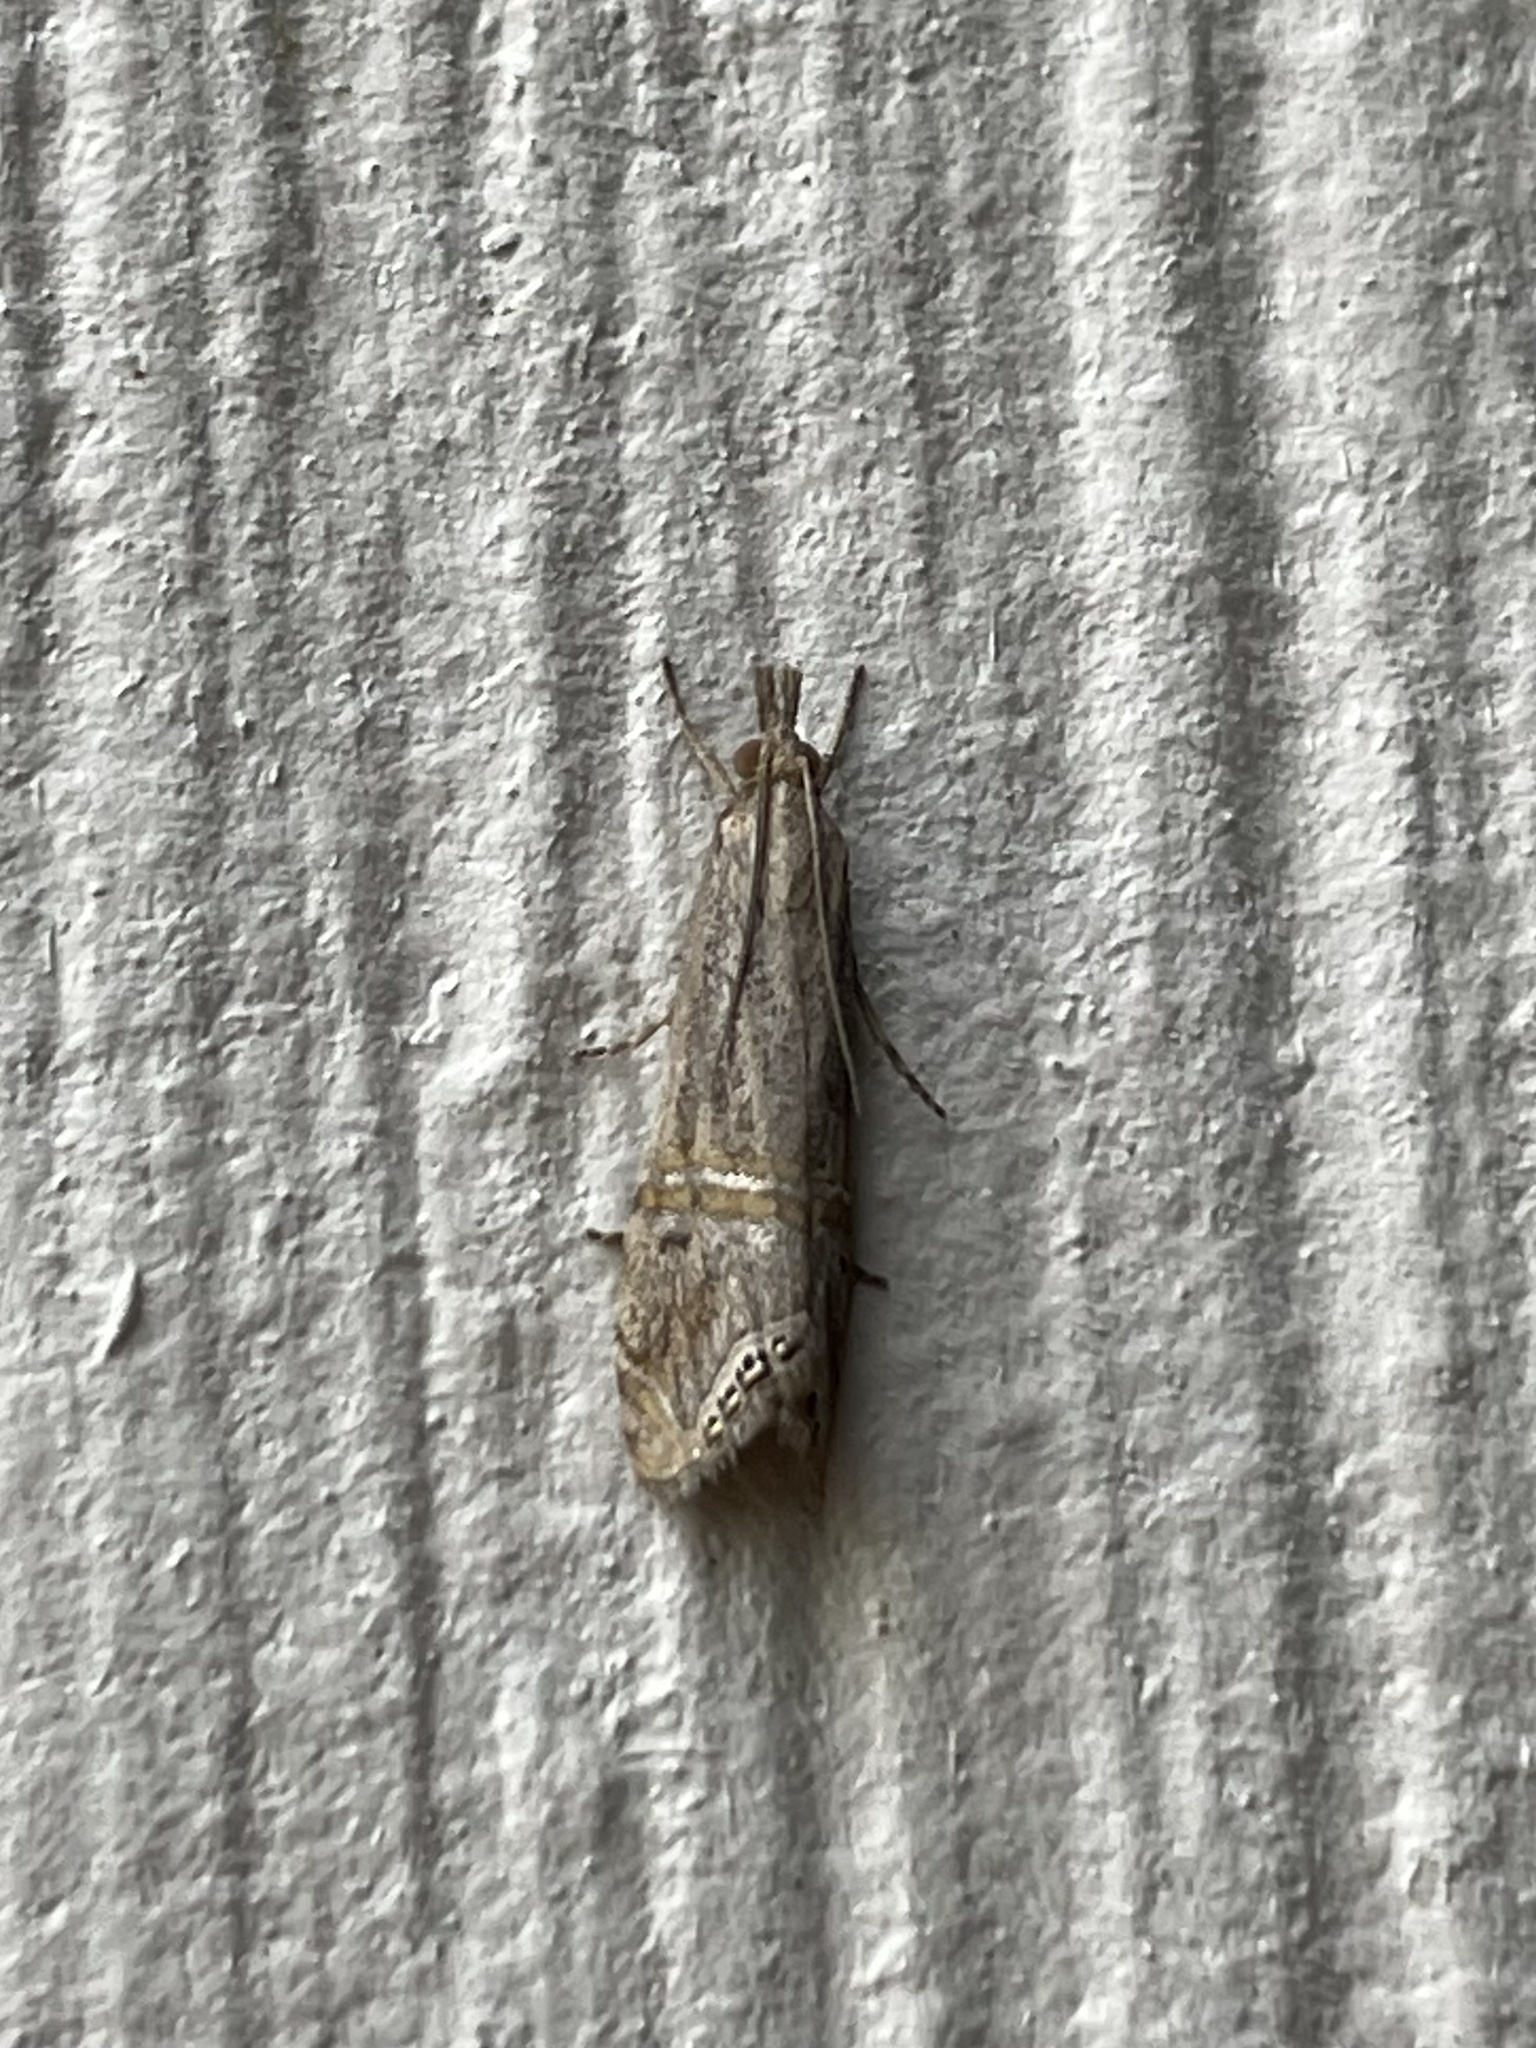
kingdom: Animalia
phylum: Arthropoda
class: Insecta
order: Lepidoptera
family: Crambidae
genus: Euchromius
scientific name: Euchromius ocellea
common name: Necklace veneer moth
